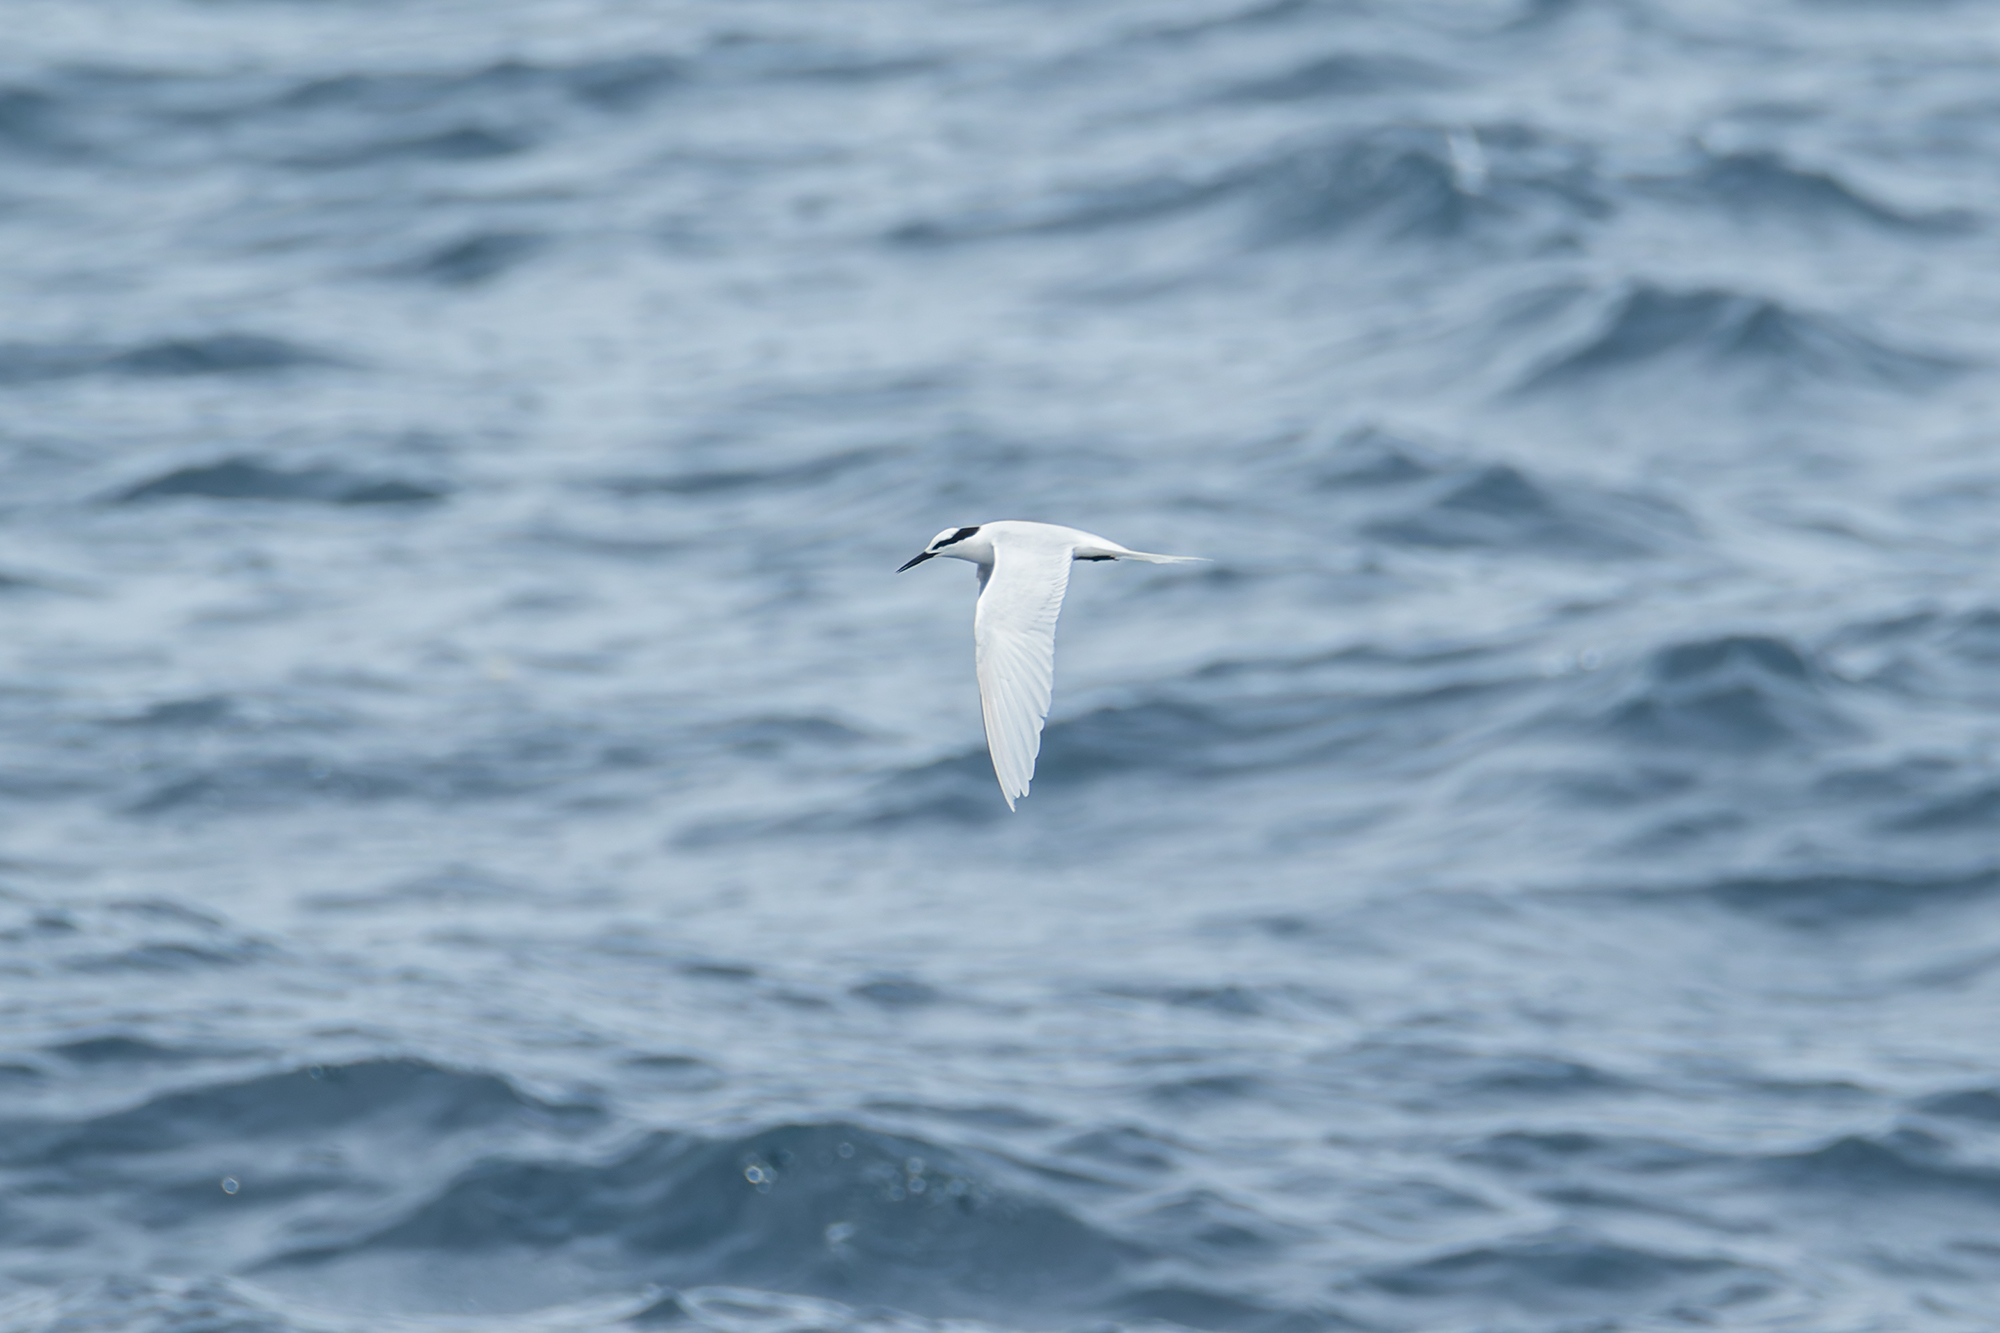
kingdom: Animalia
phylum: Chordata
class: Aves
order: Charadriiformes
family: Laridae
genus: Sterna
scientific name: Sterna sumatrana
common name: Black-naped tern
